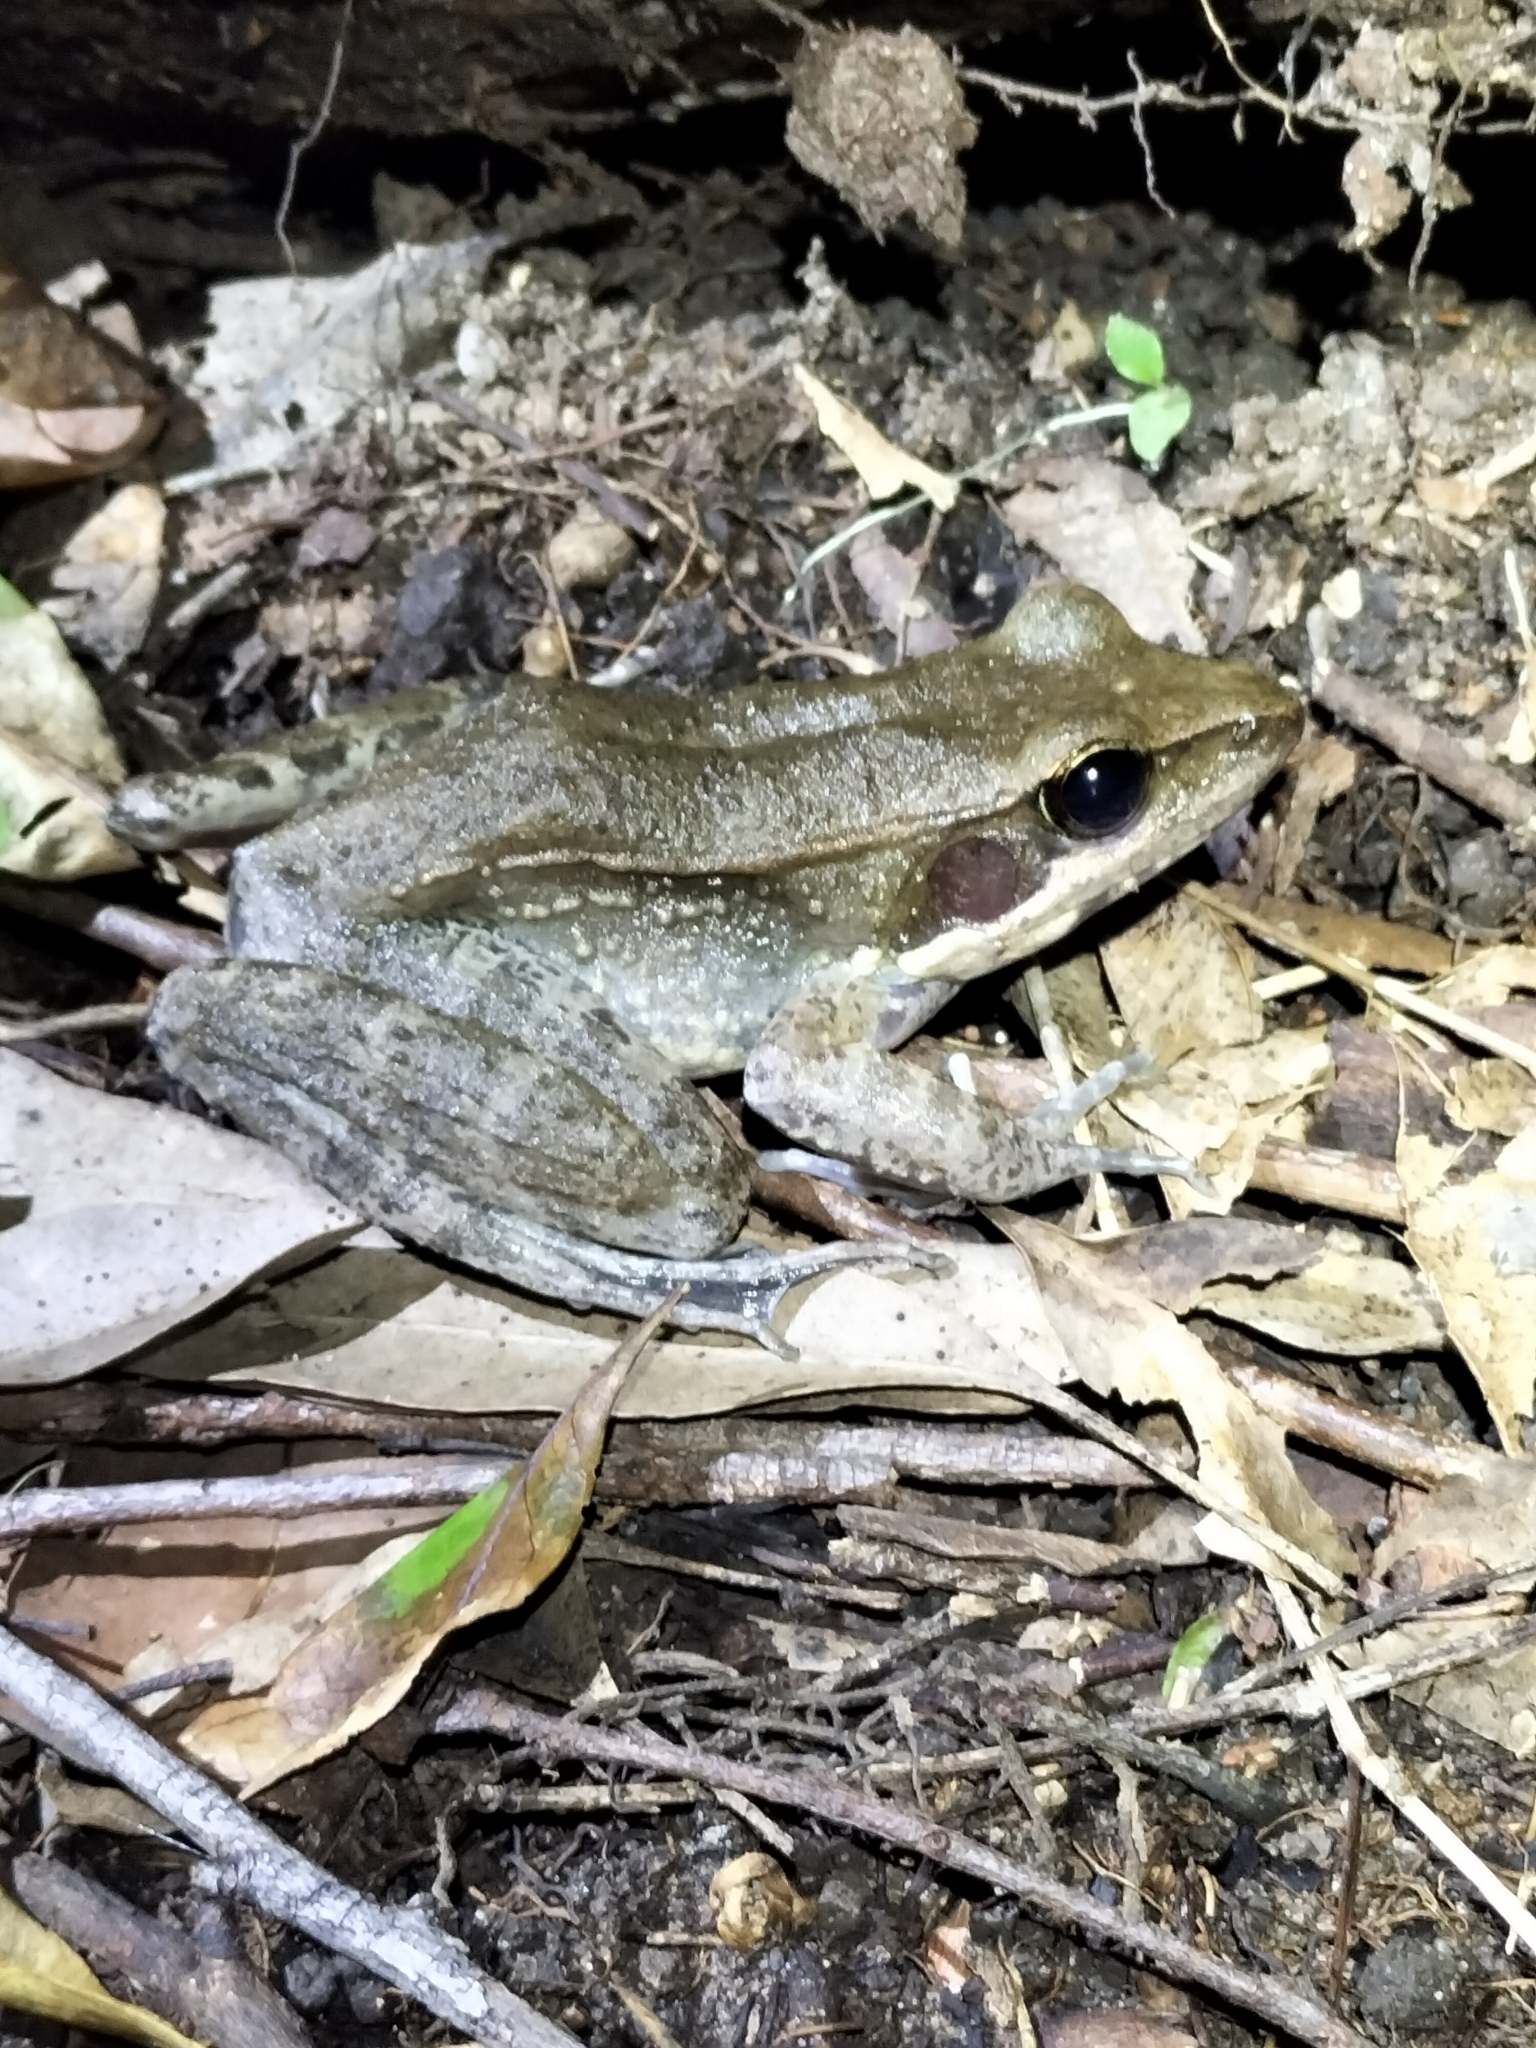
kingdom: Animalia
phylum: Chordata
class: Amphibia
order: Anura
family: Ranidae
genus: Papurana
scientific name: Papurana daemeli
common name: Arhem rana
